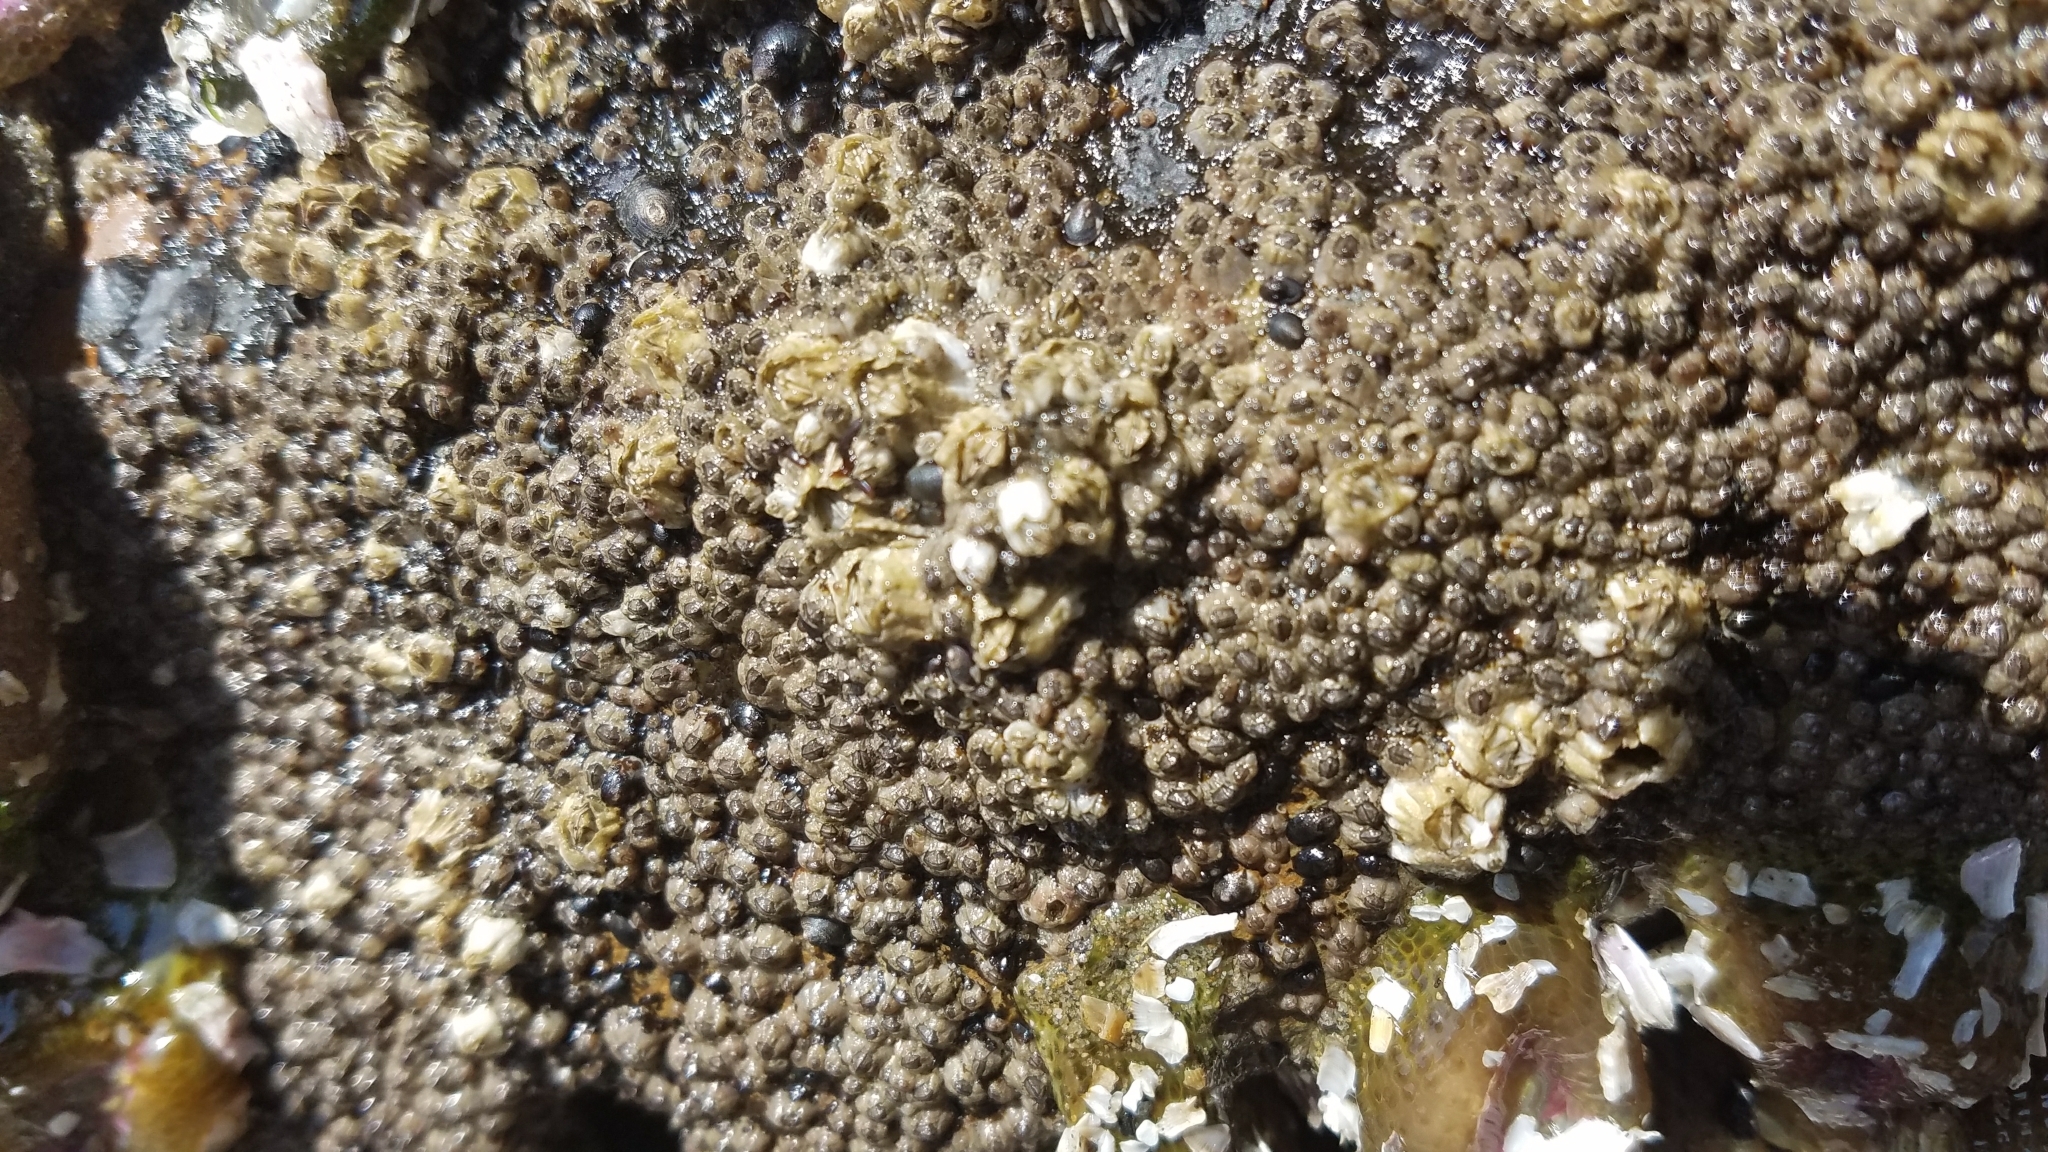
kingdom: Animalia
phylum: Arthropoda
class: Maxillopoda
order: Sessilia
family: Chthamalidae
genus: Chthamalus
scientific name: Chthamalus dalli
